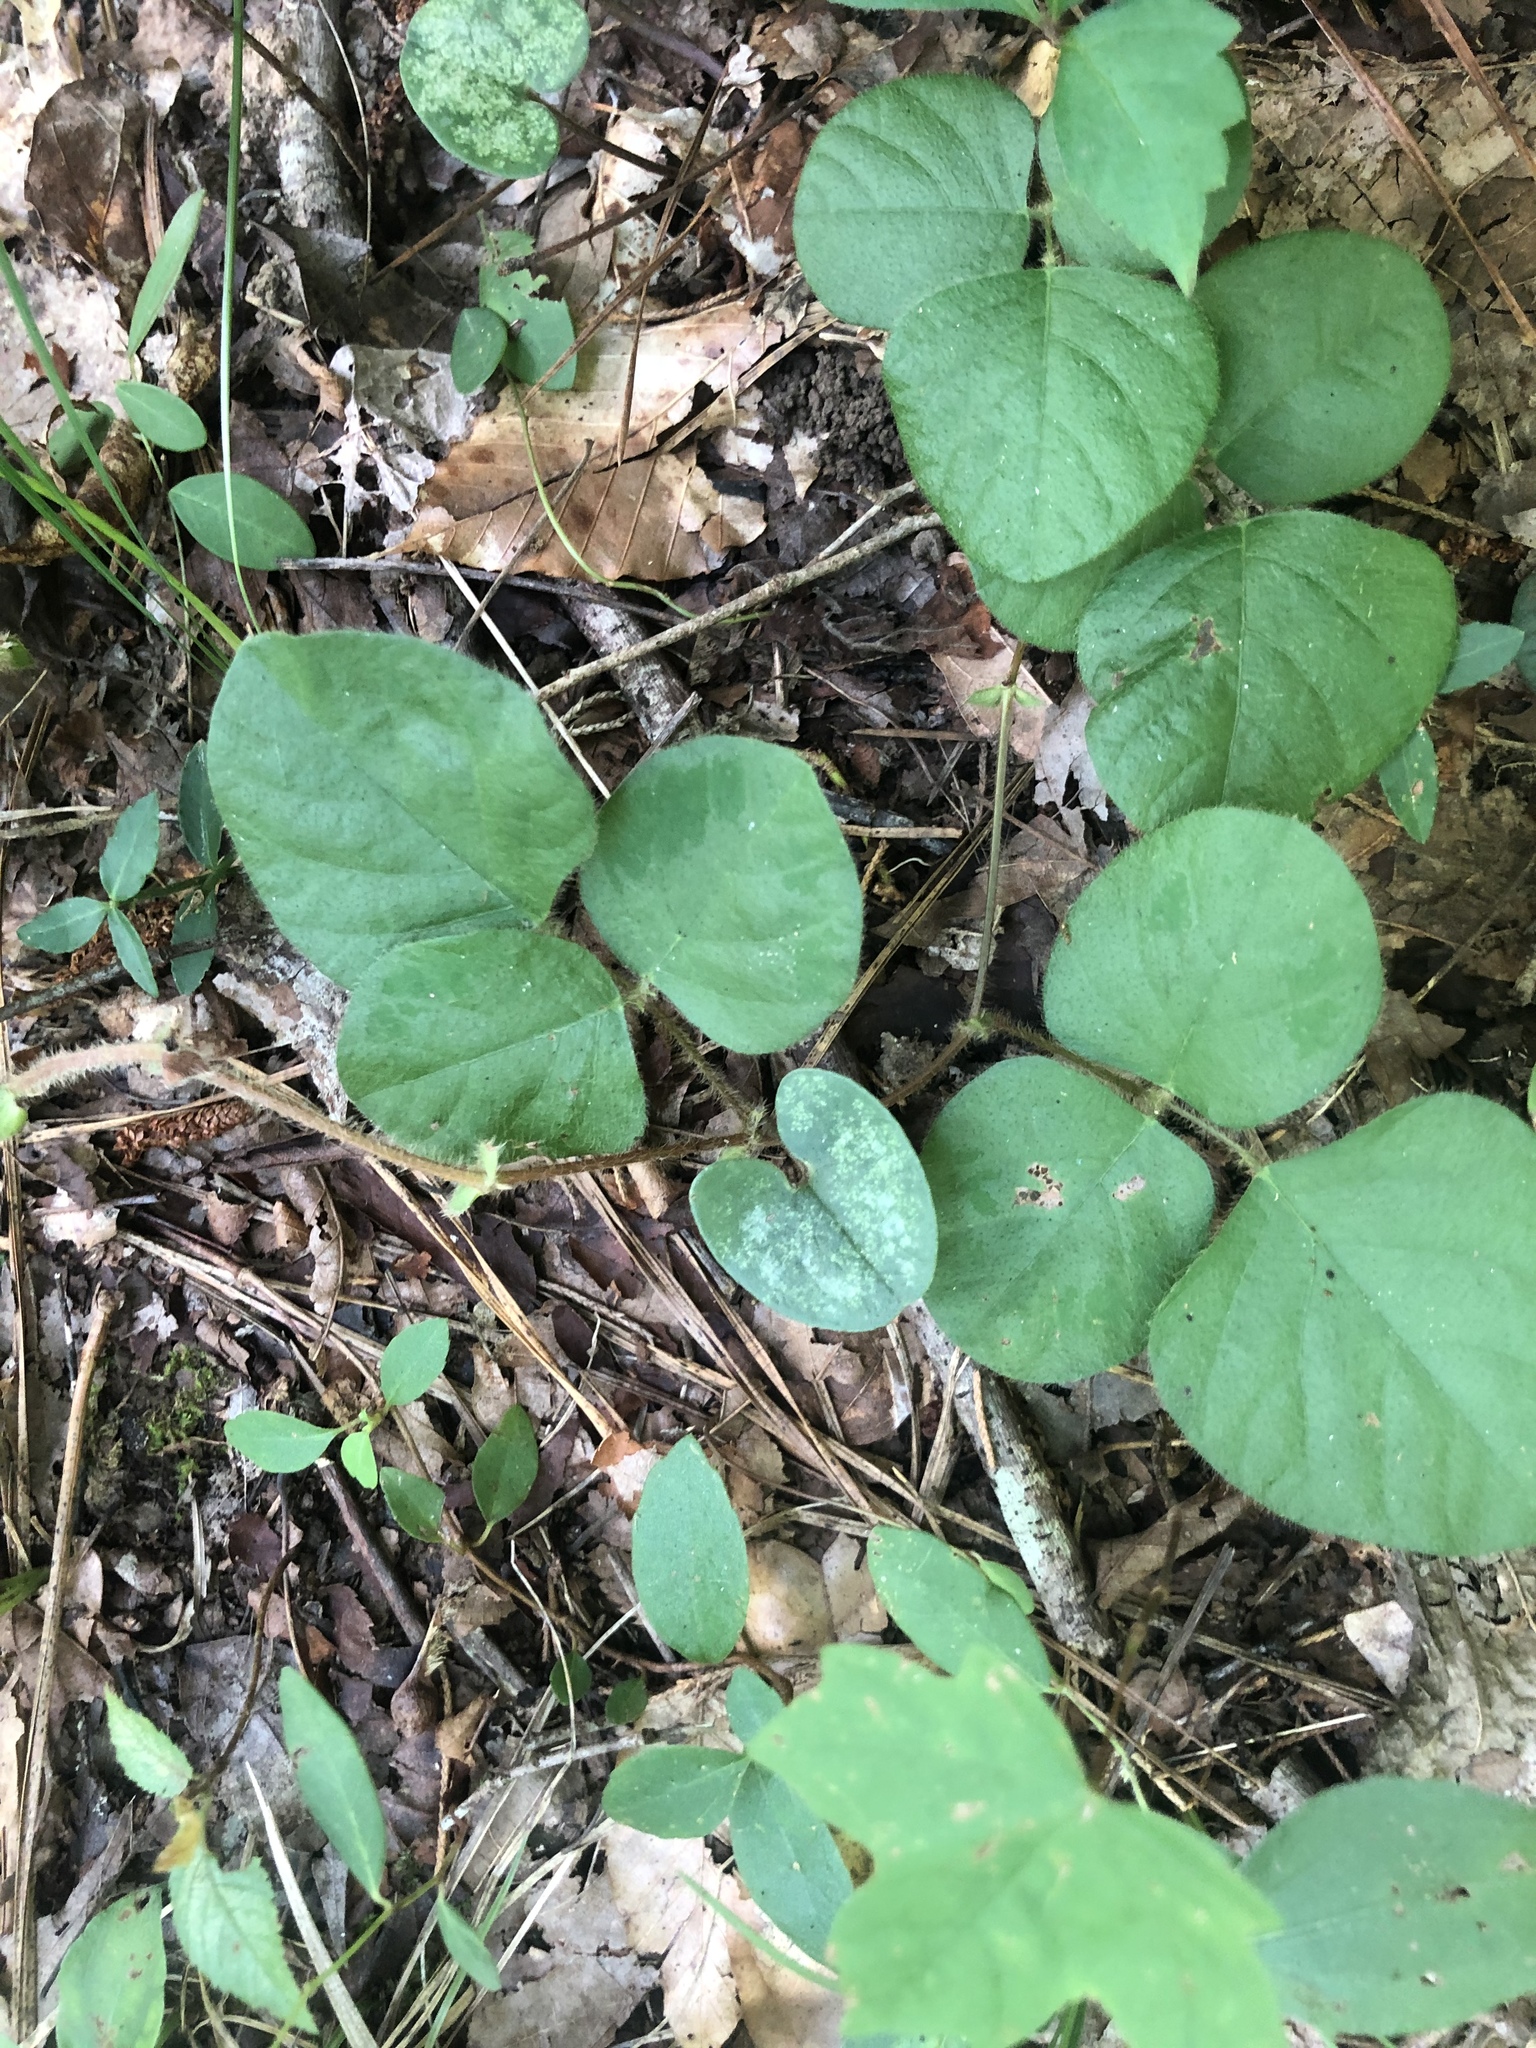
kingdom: Plantae
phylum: Tracheophyta
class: Magnoliopsida
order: Fabales
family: Fabaceae
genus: Desmodium
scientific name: Desmodium rotundifolium
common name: Dollarleaf
